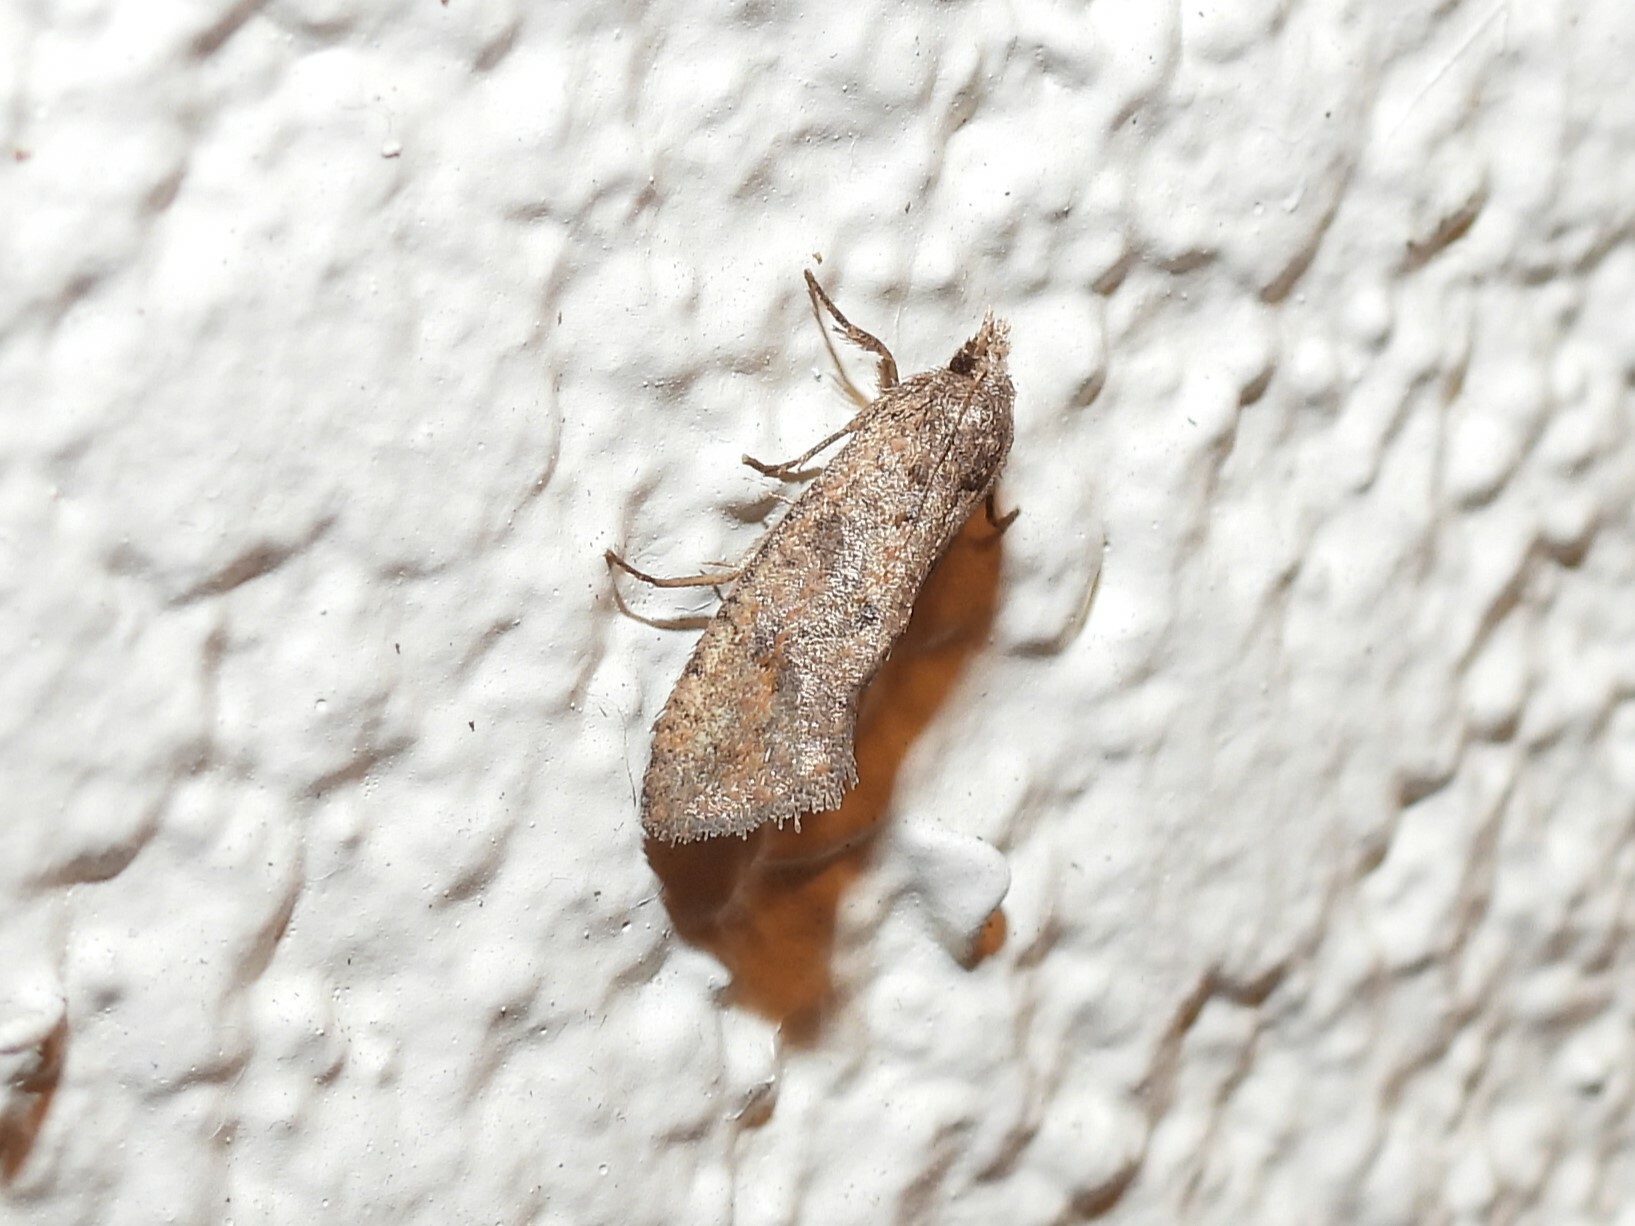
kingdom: Animalia
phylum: Arthropoda
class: Insecta
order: Lepidoptera
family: Tineidae
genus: Acrolophus
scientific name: Acrolophus walsinghami
